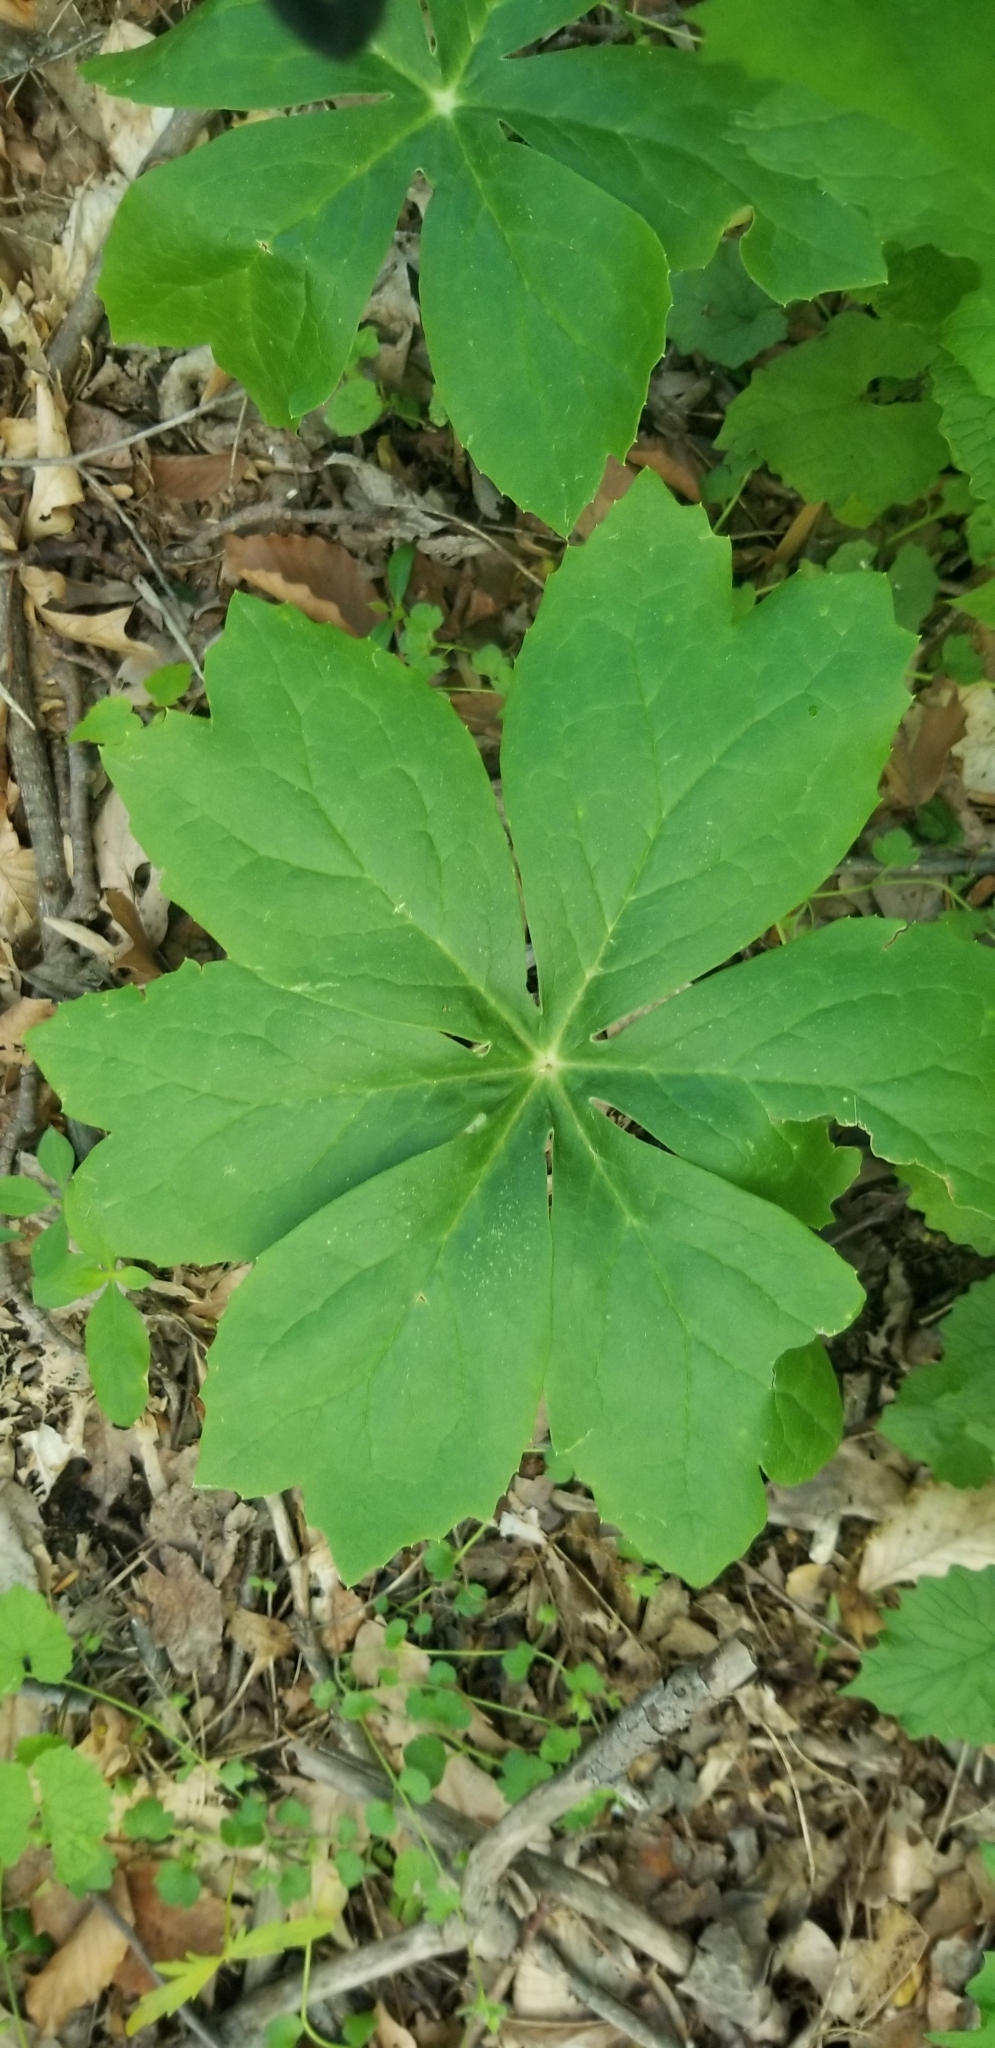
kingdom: Plantae
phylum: Tracheophyta
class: Magnoliopsida
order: Ranunculales
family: Berberidaceae
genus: Podophyllum
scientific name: Podophyllum peltatum
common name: Wild mandrake
